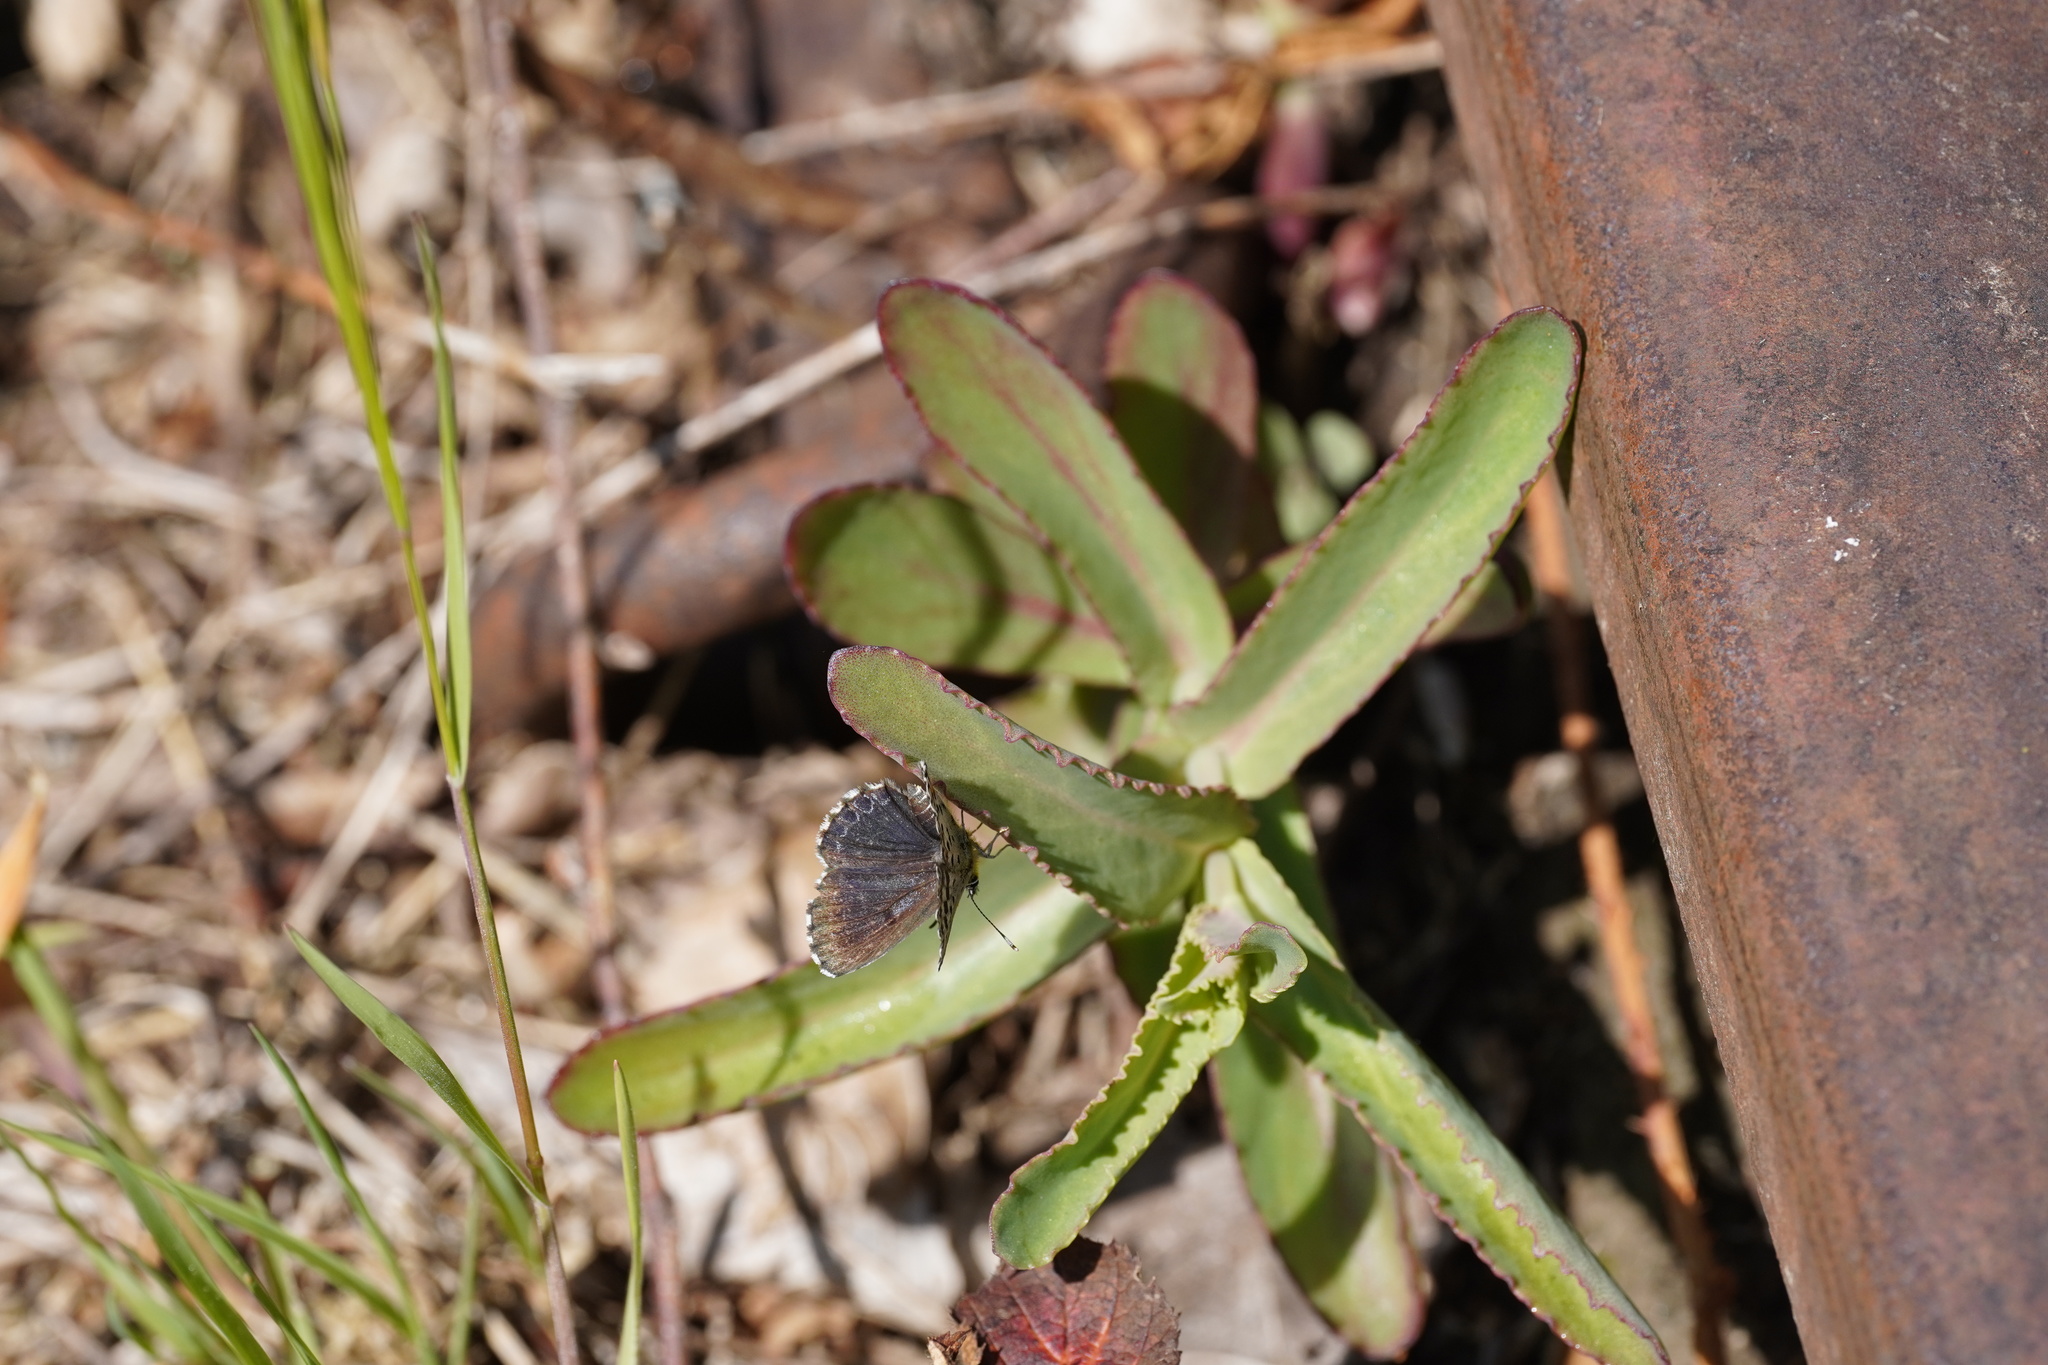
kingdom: Animalia
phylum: Arthropoda
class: Insecta
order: Lepidoptera
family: Lycaenidae
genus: Scolitantides
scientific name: Scolitantides orion
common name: Chequered blue
